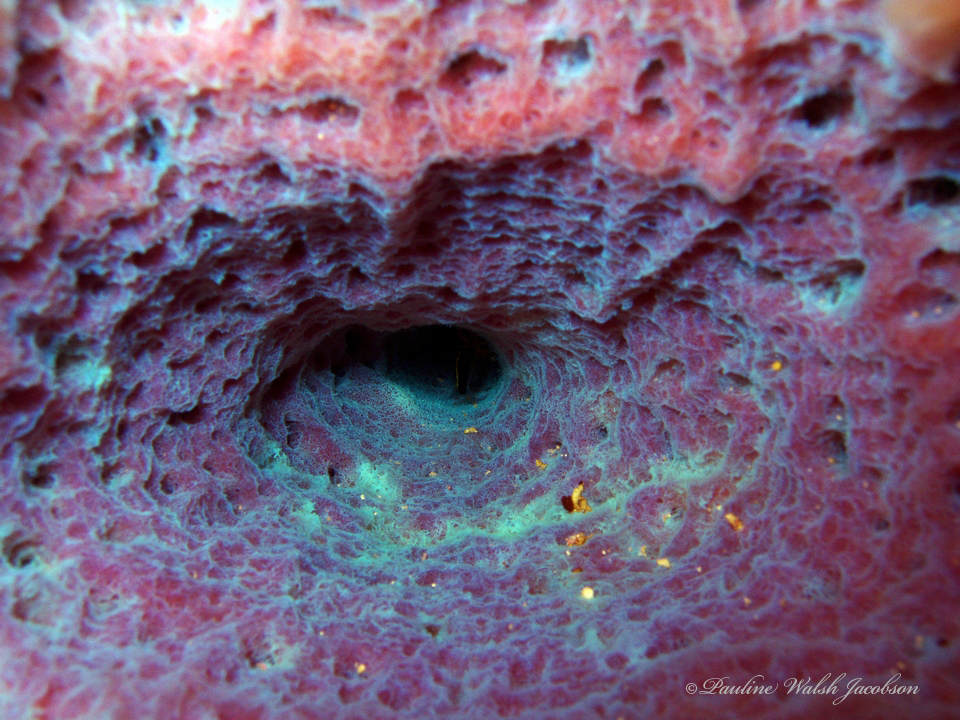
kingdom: Animalia
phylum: Porifera
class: Demospongiae
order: Haplosclerida
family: Callyspongiidae
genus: Callyspongia
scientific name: Callyspongia plicifera
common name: Azure vase sponge
